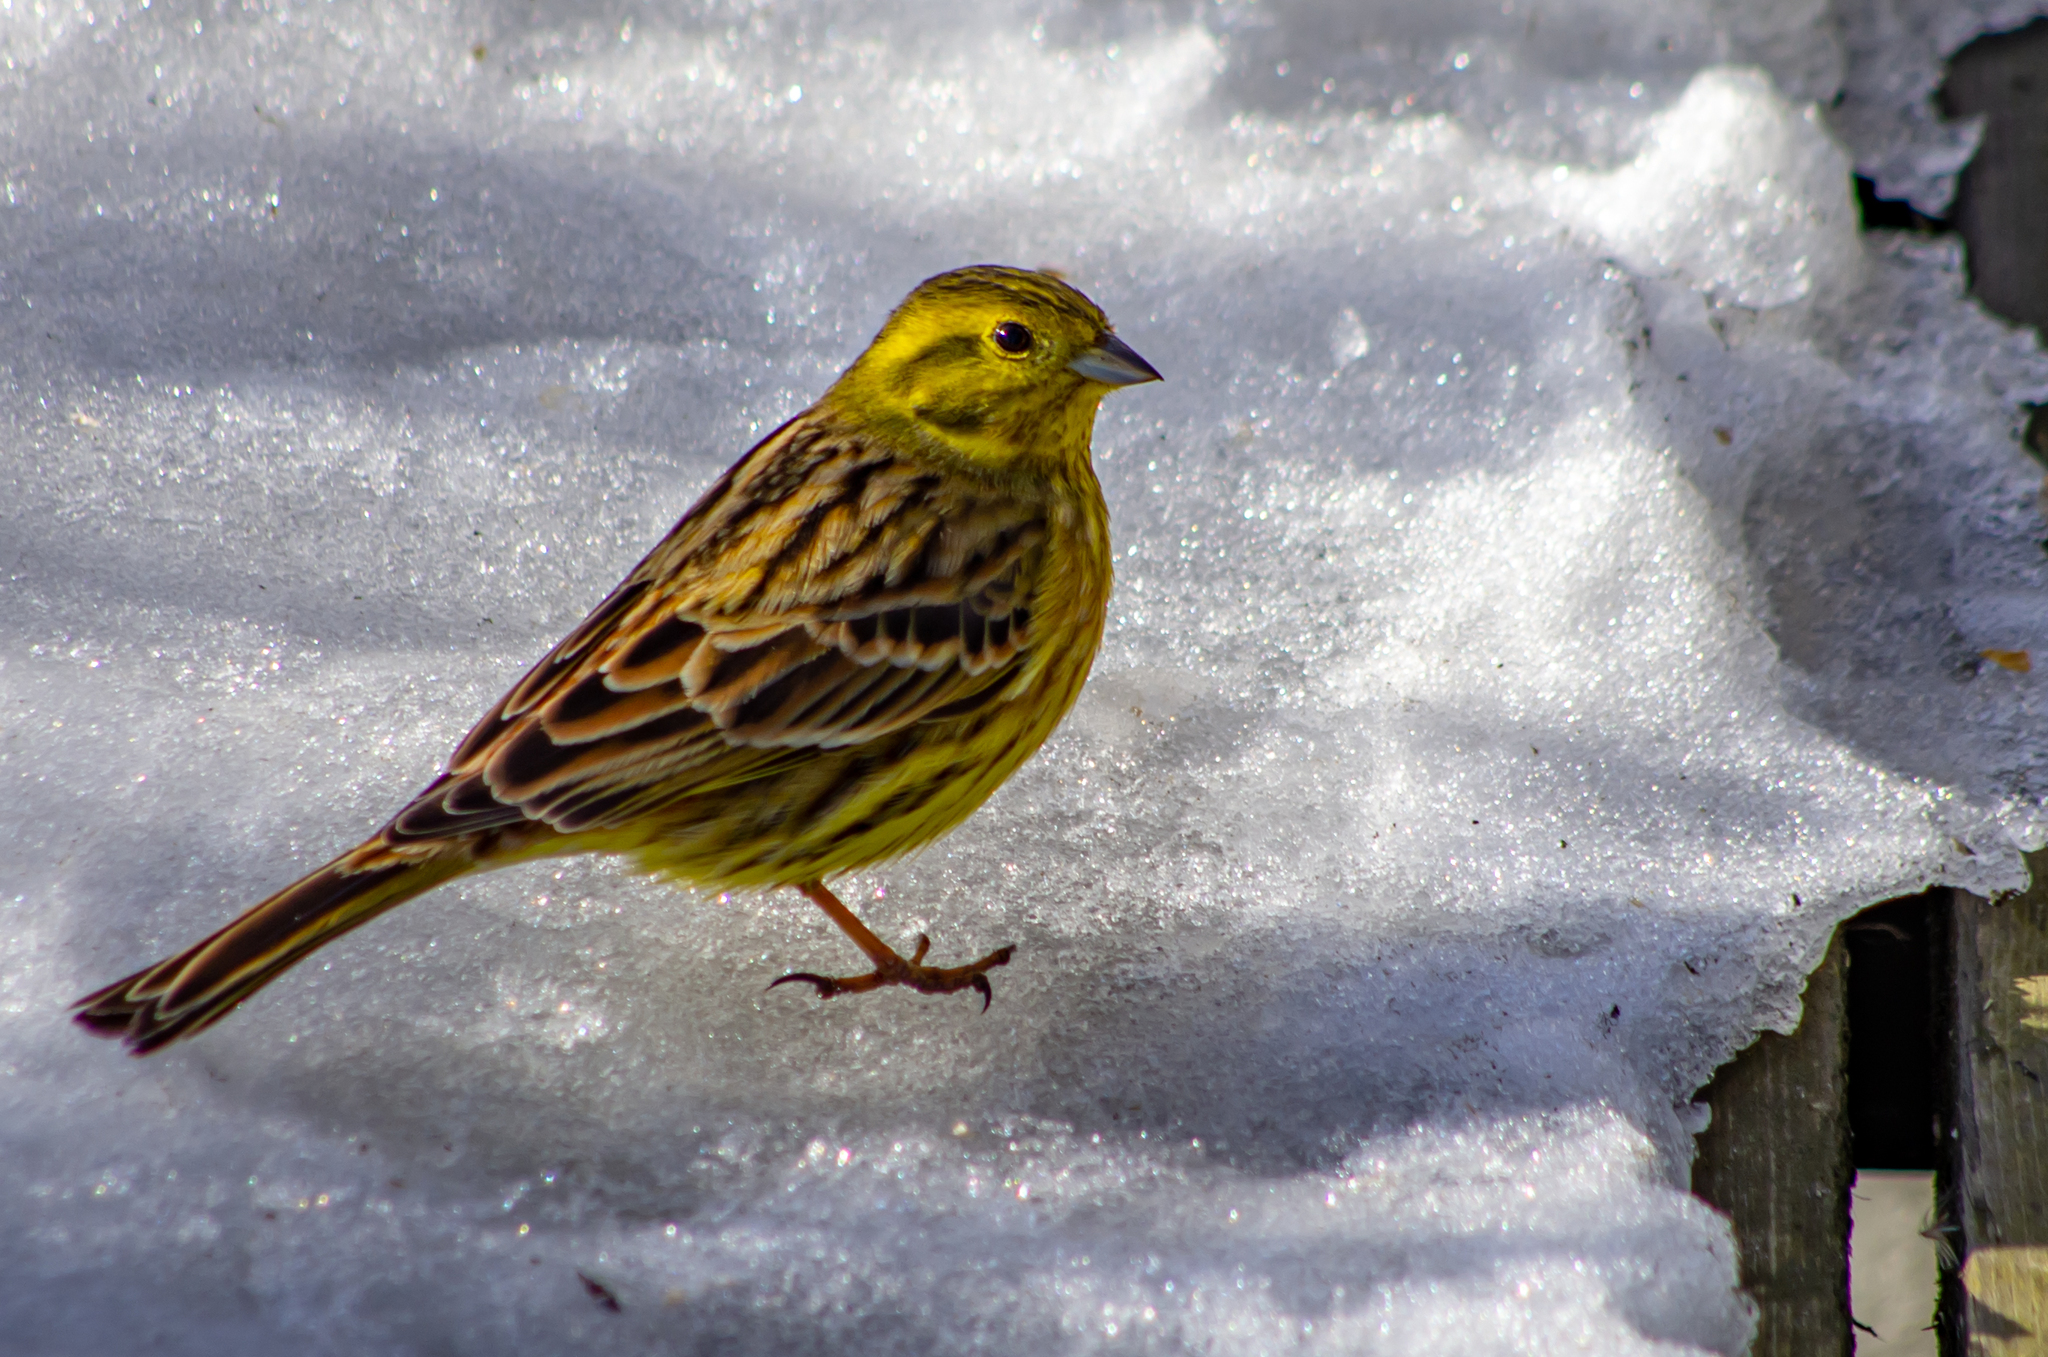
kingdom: Animalia
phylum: Chordata
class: Aves
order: Passeriformes
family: Emberizidae
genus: Emberiza
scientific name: Emberiza citrinella
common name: Yellowhammer
